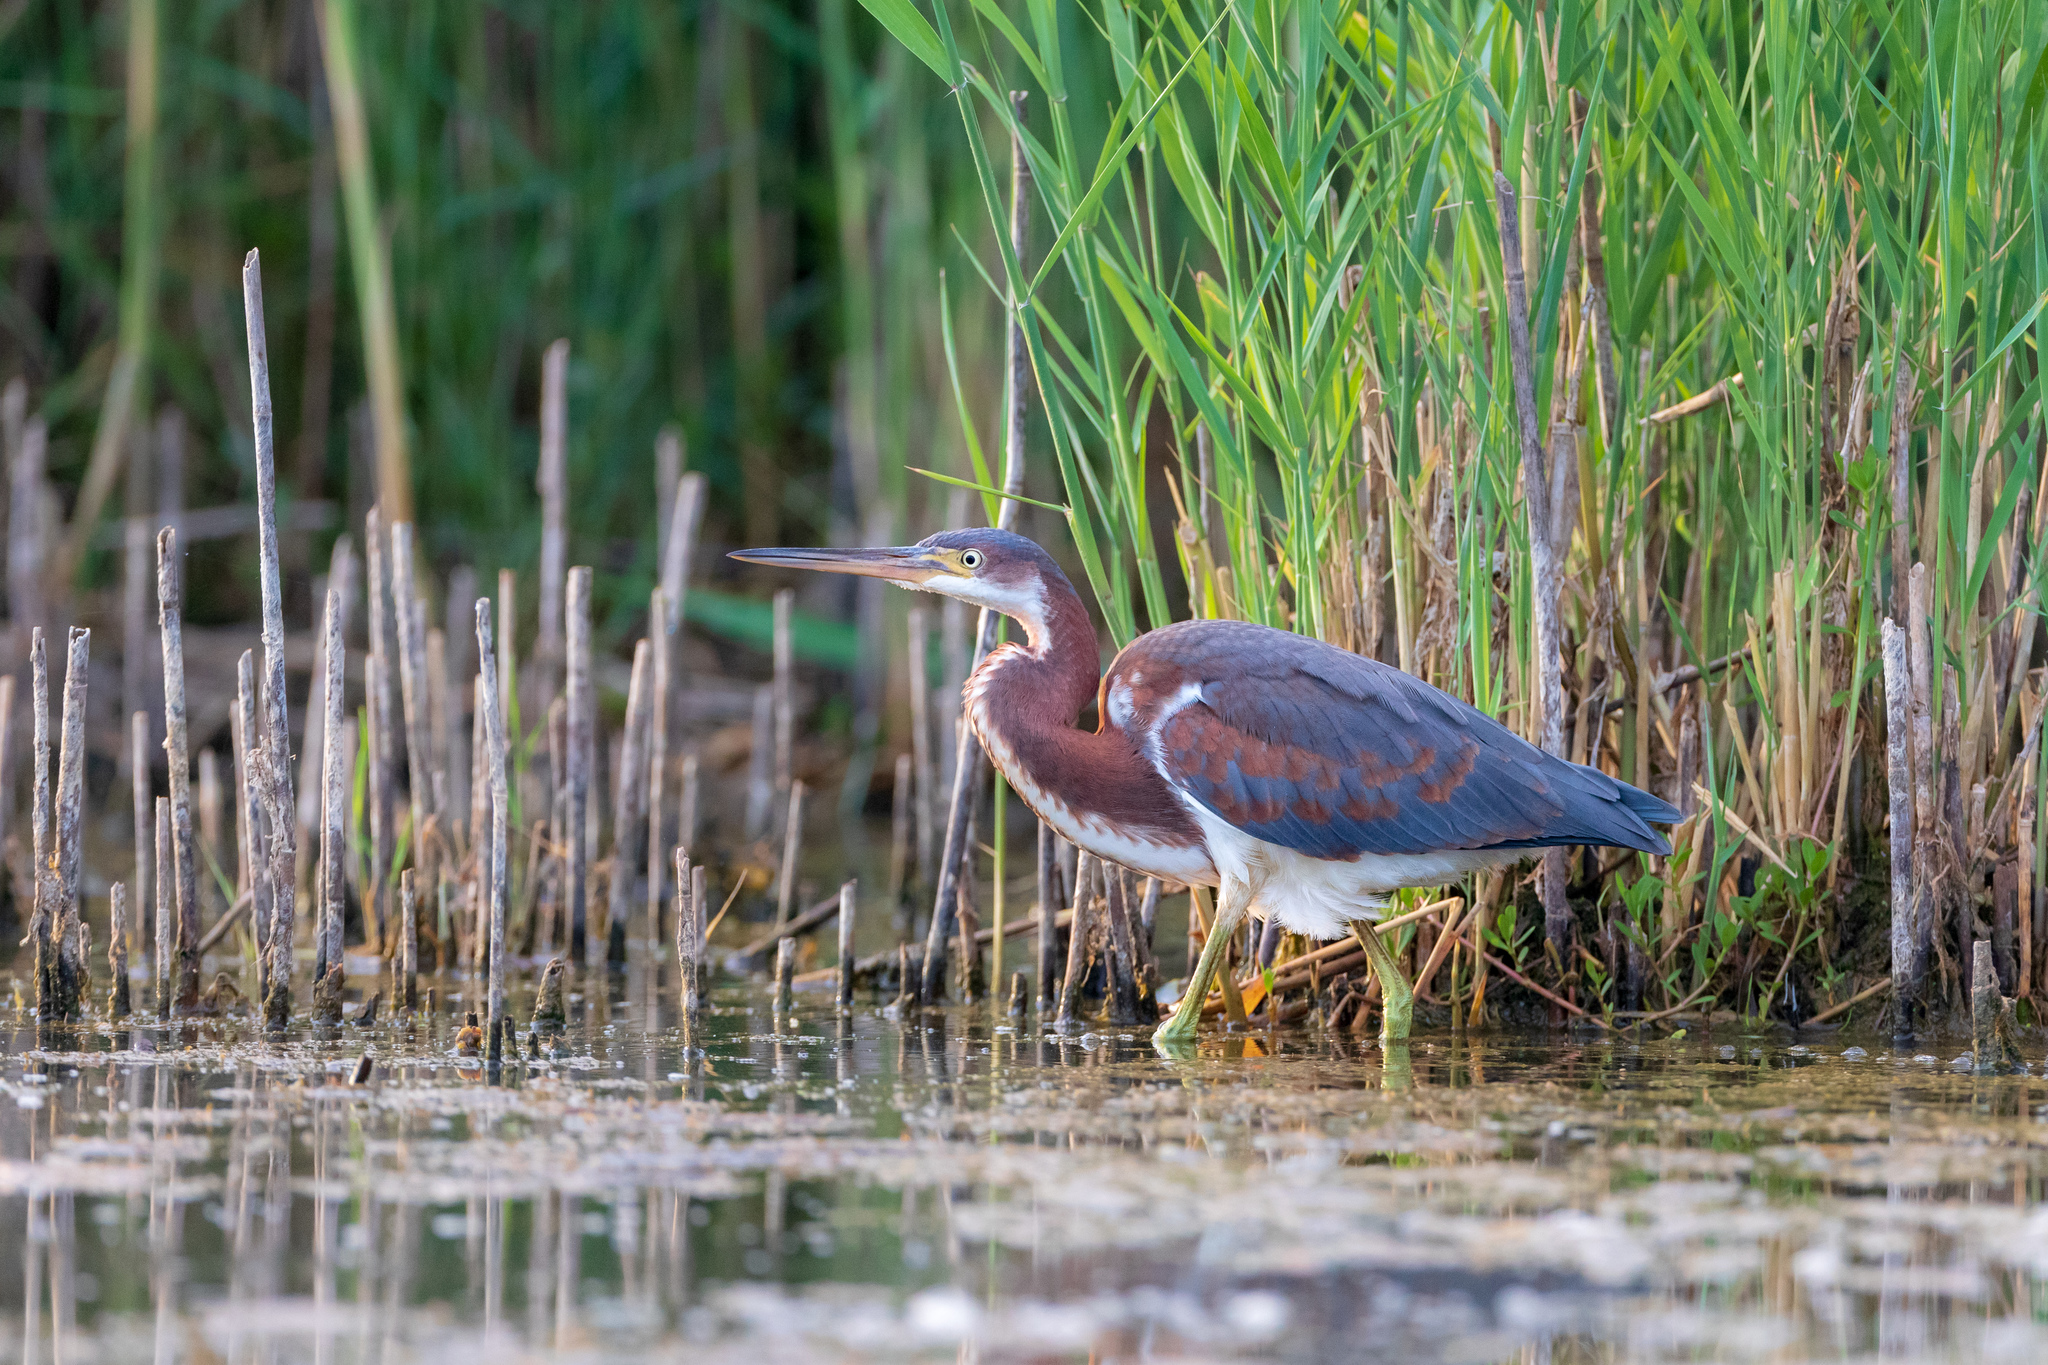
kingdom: Animalia
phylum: Chordata
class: Aves
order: Pelecaniformes
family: Ardeidae
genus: Egretta
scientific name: Egretta tricolor
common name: Tricolored heron
